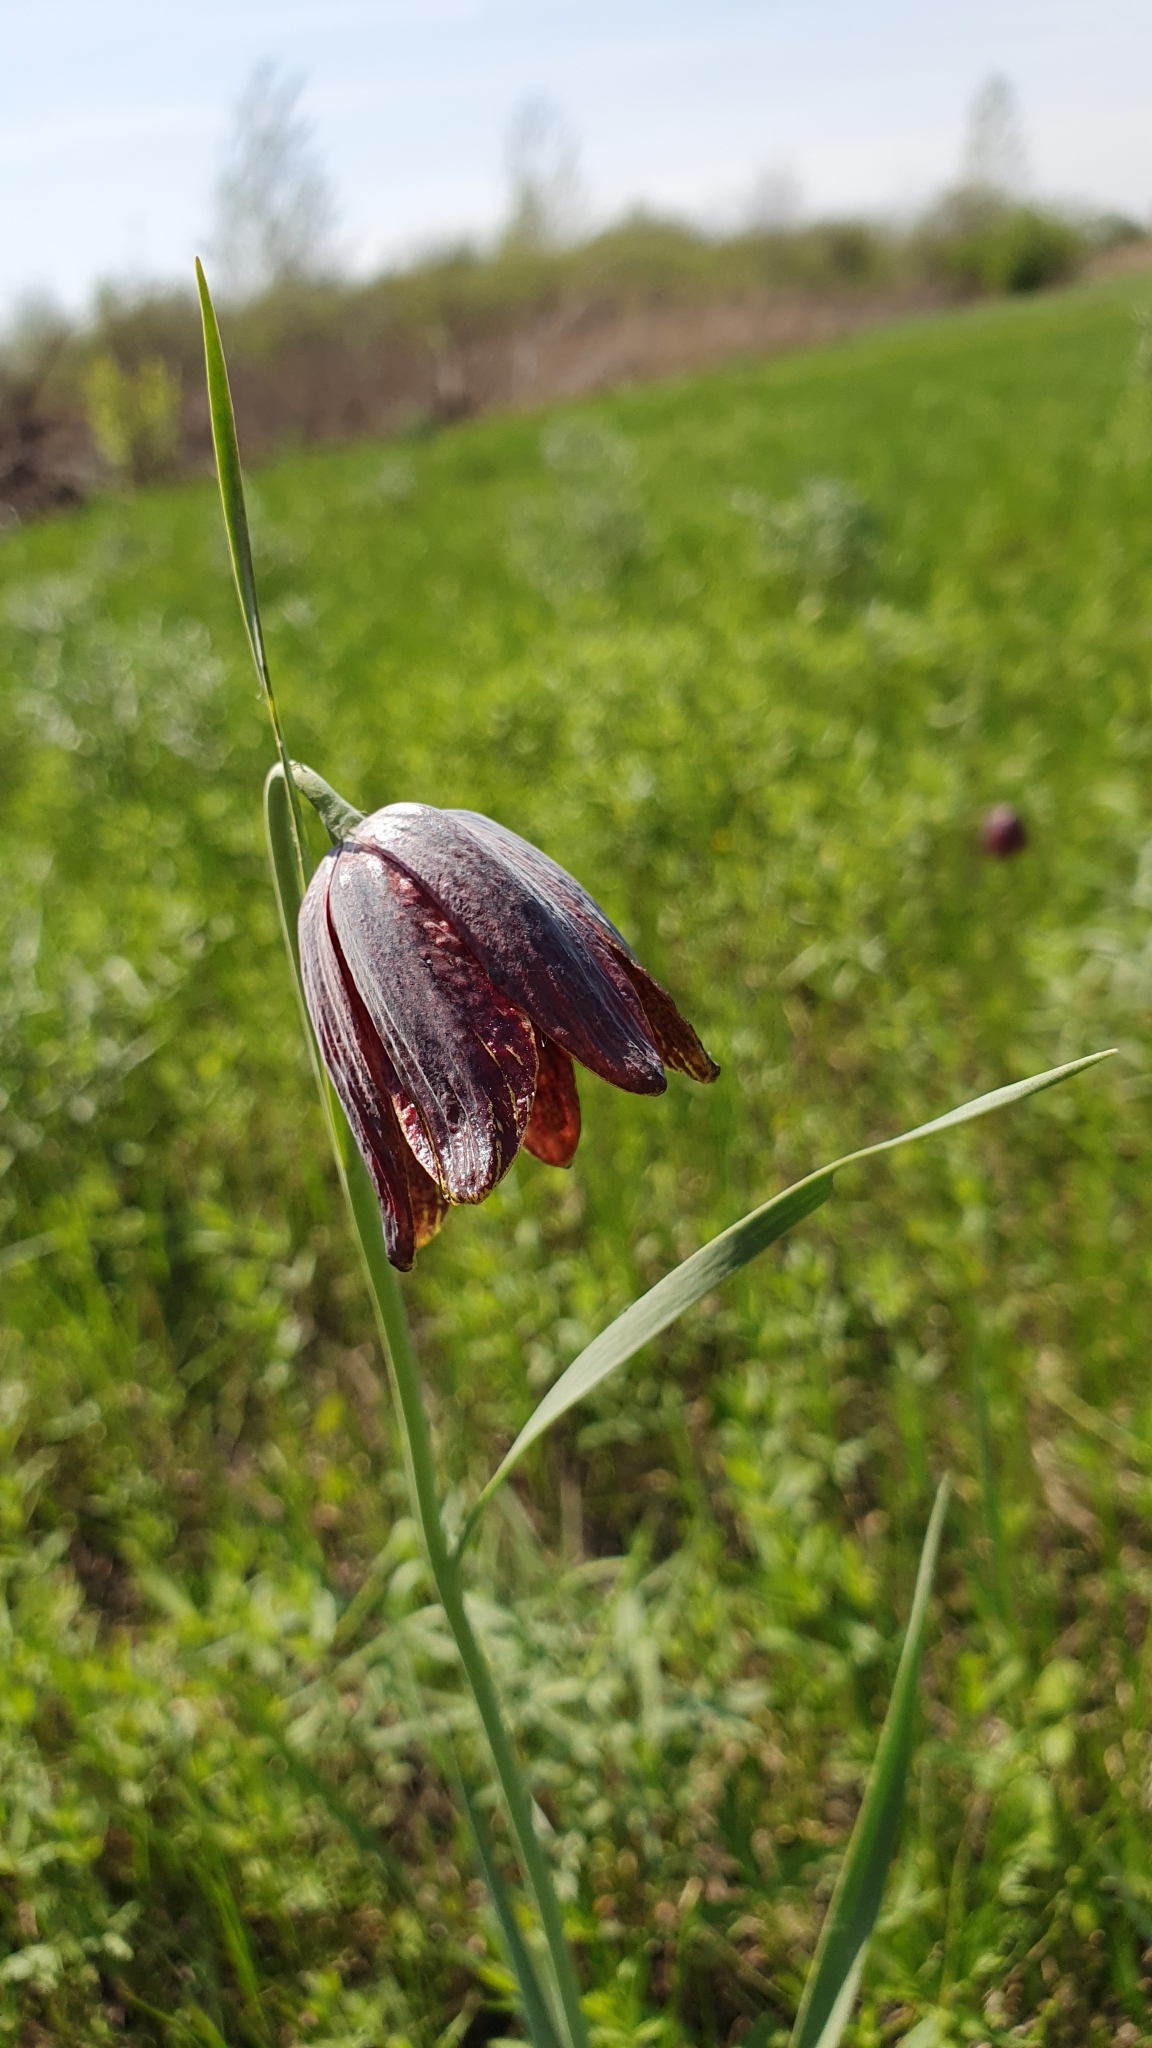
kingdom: Plantae
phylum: Tracheophyta
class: Liliopsida
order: Liliales
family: Liliaceae
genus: Fritillaria
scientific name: Fritillaria meleagroides
